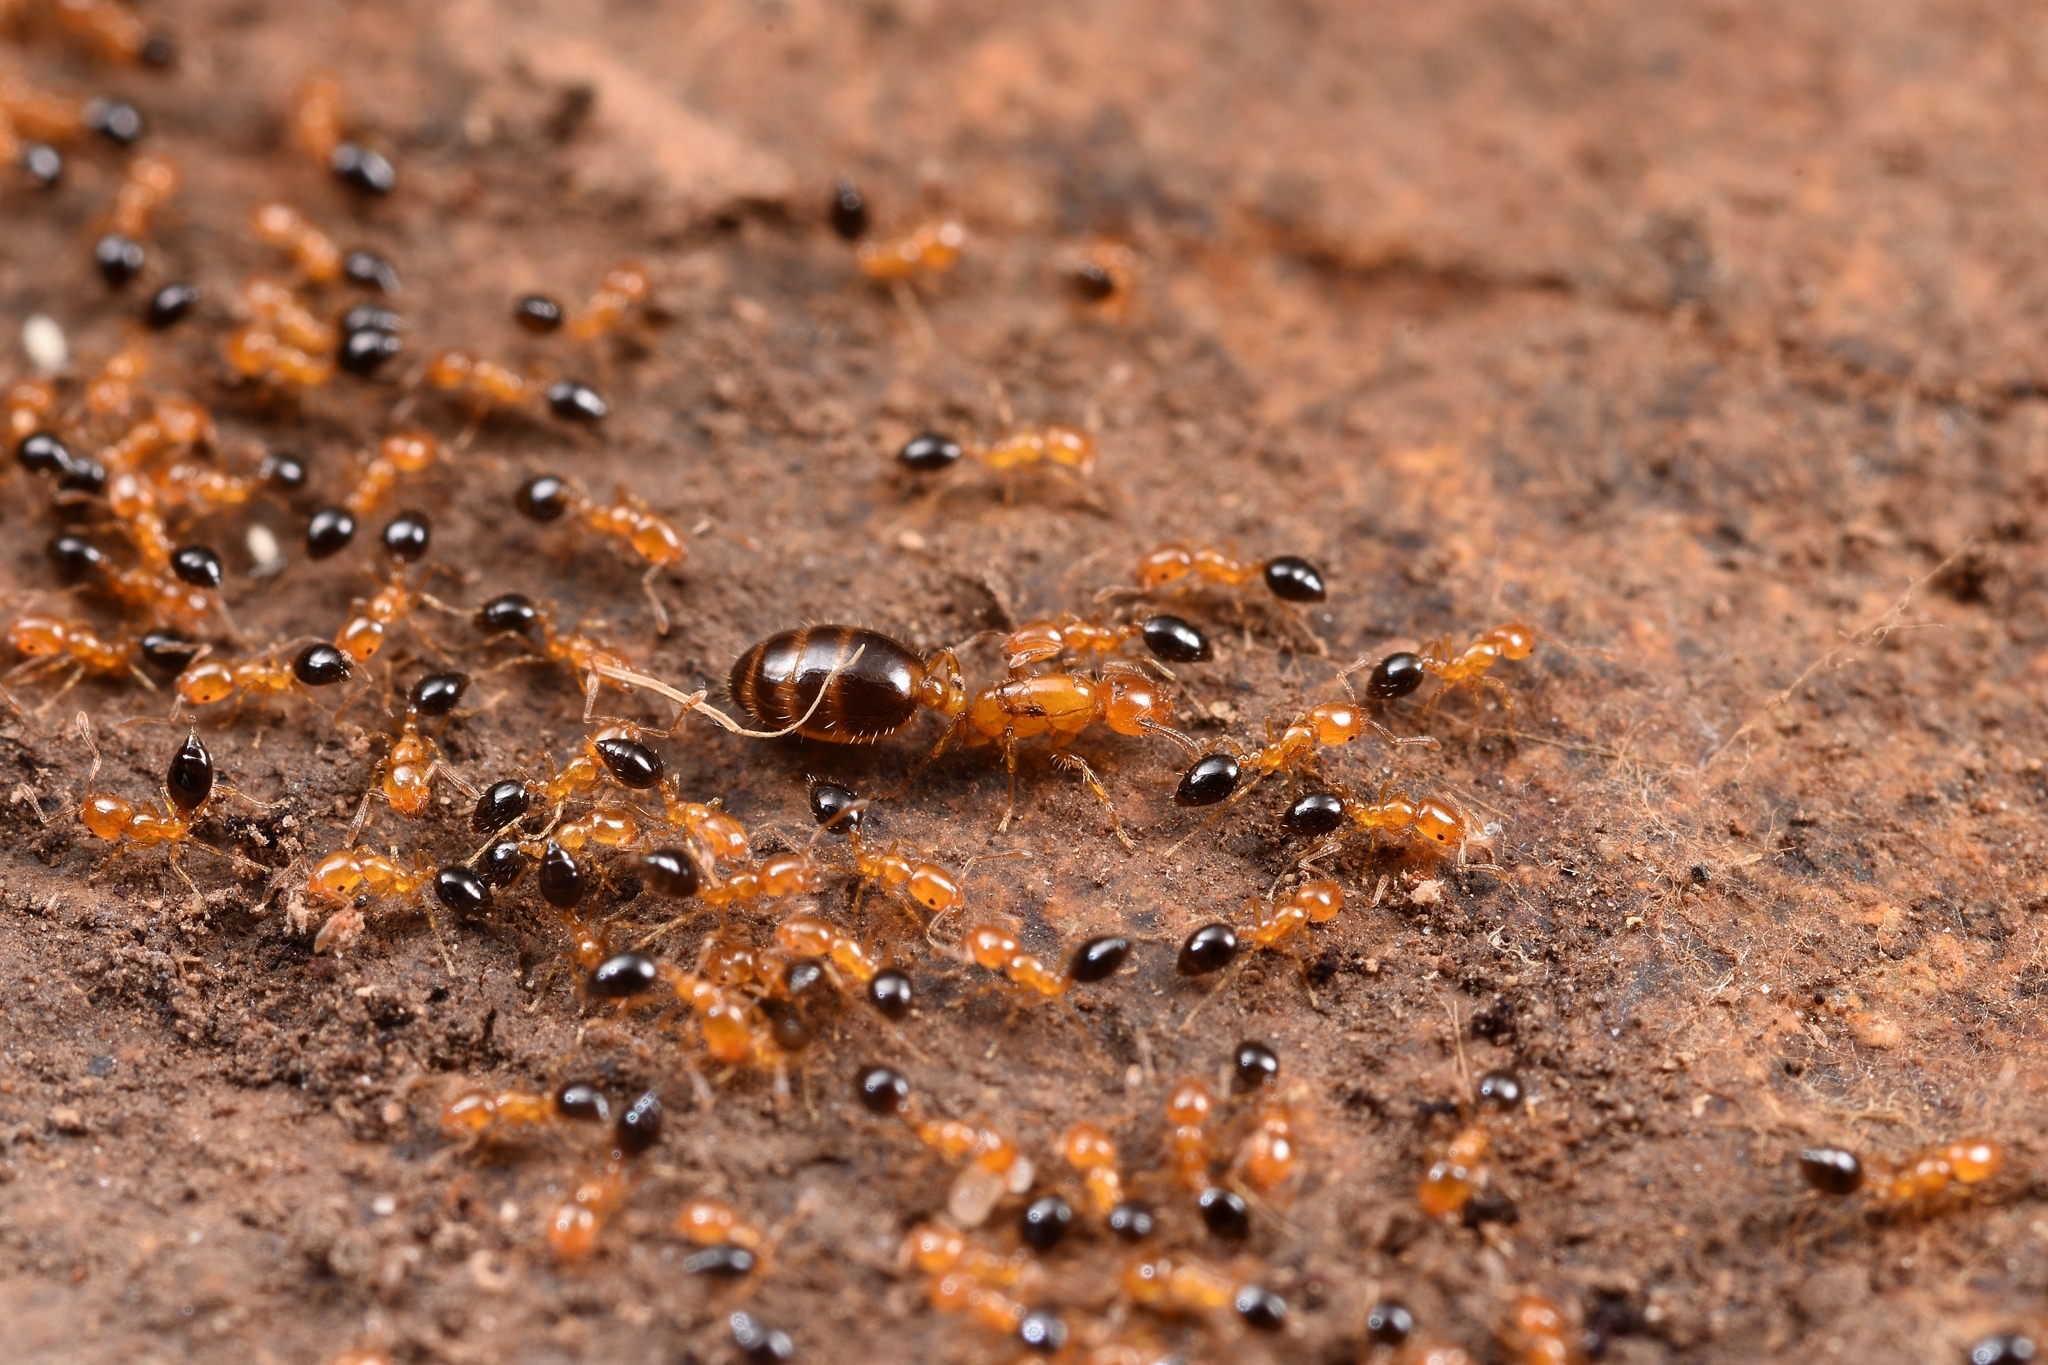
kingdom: Animalia
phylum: Arthropoda
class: Insecta
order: Hymenoptera
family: Formicidae
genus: Monomorium
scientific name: Monomorium intrudens
